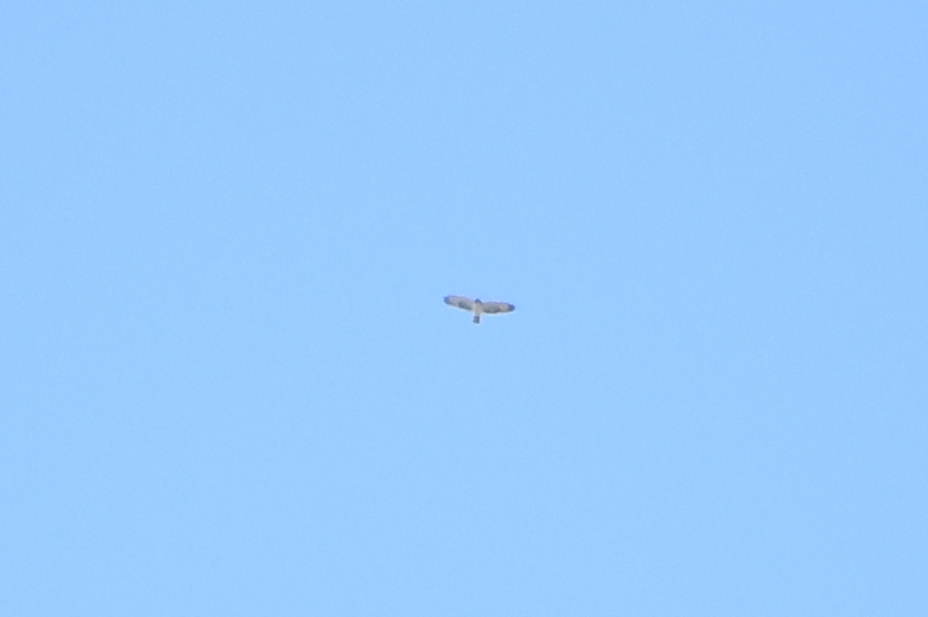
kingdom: Animalia
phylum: Chordata
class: Aves
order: Accipitriformes
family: Accipitridae
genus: Buteo
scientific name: Buteo brachyurus
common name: Short-tailed hawk
